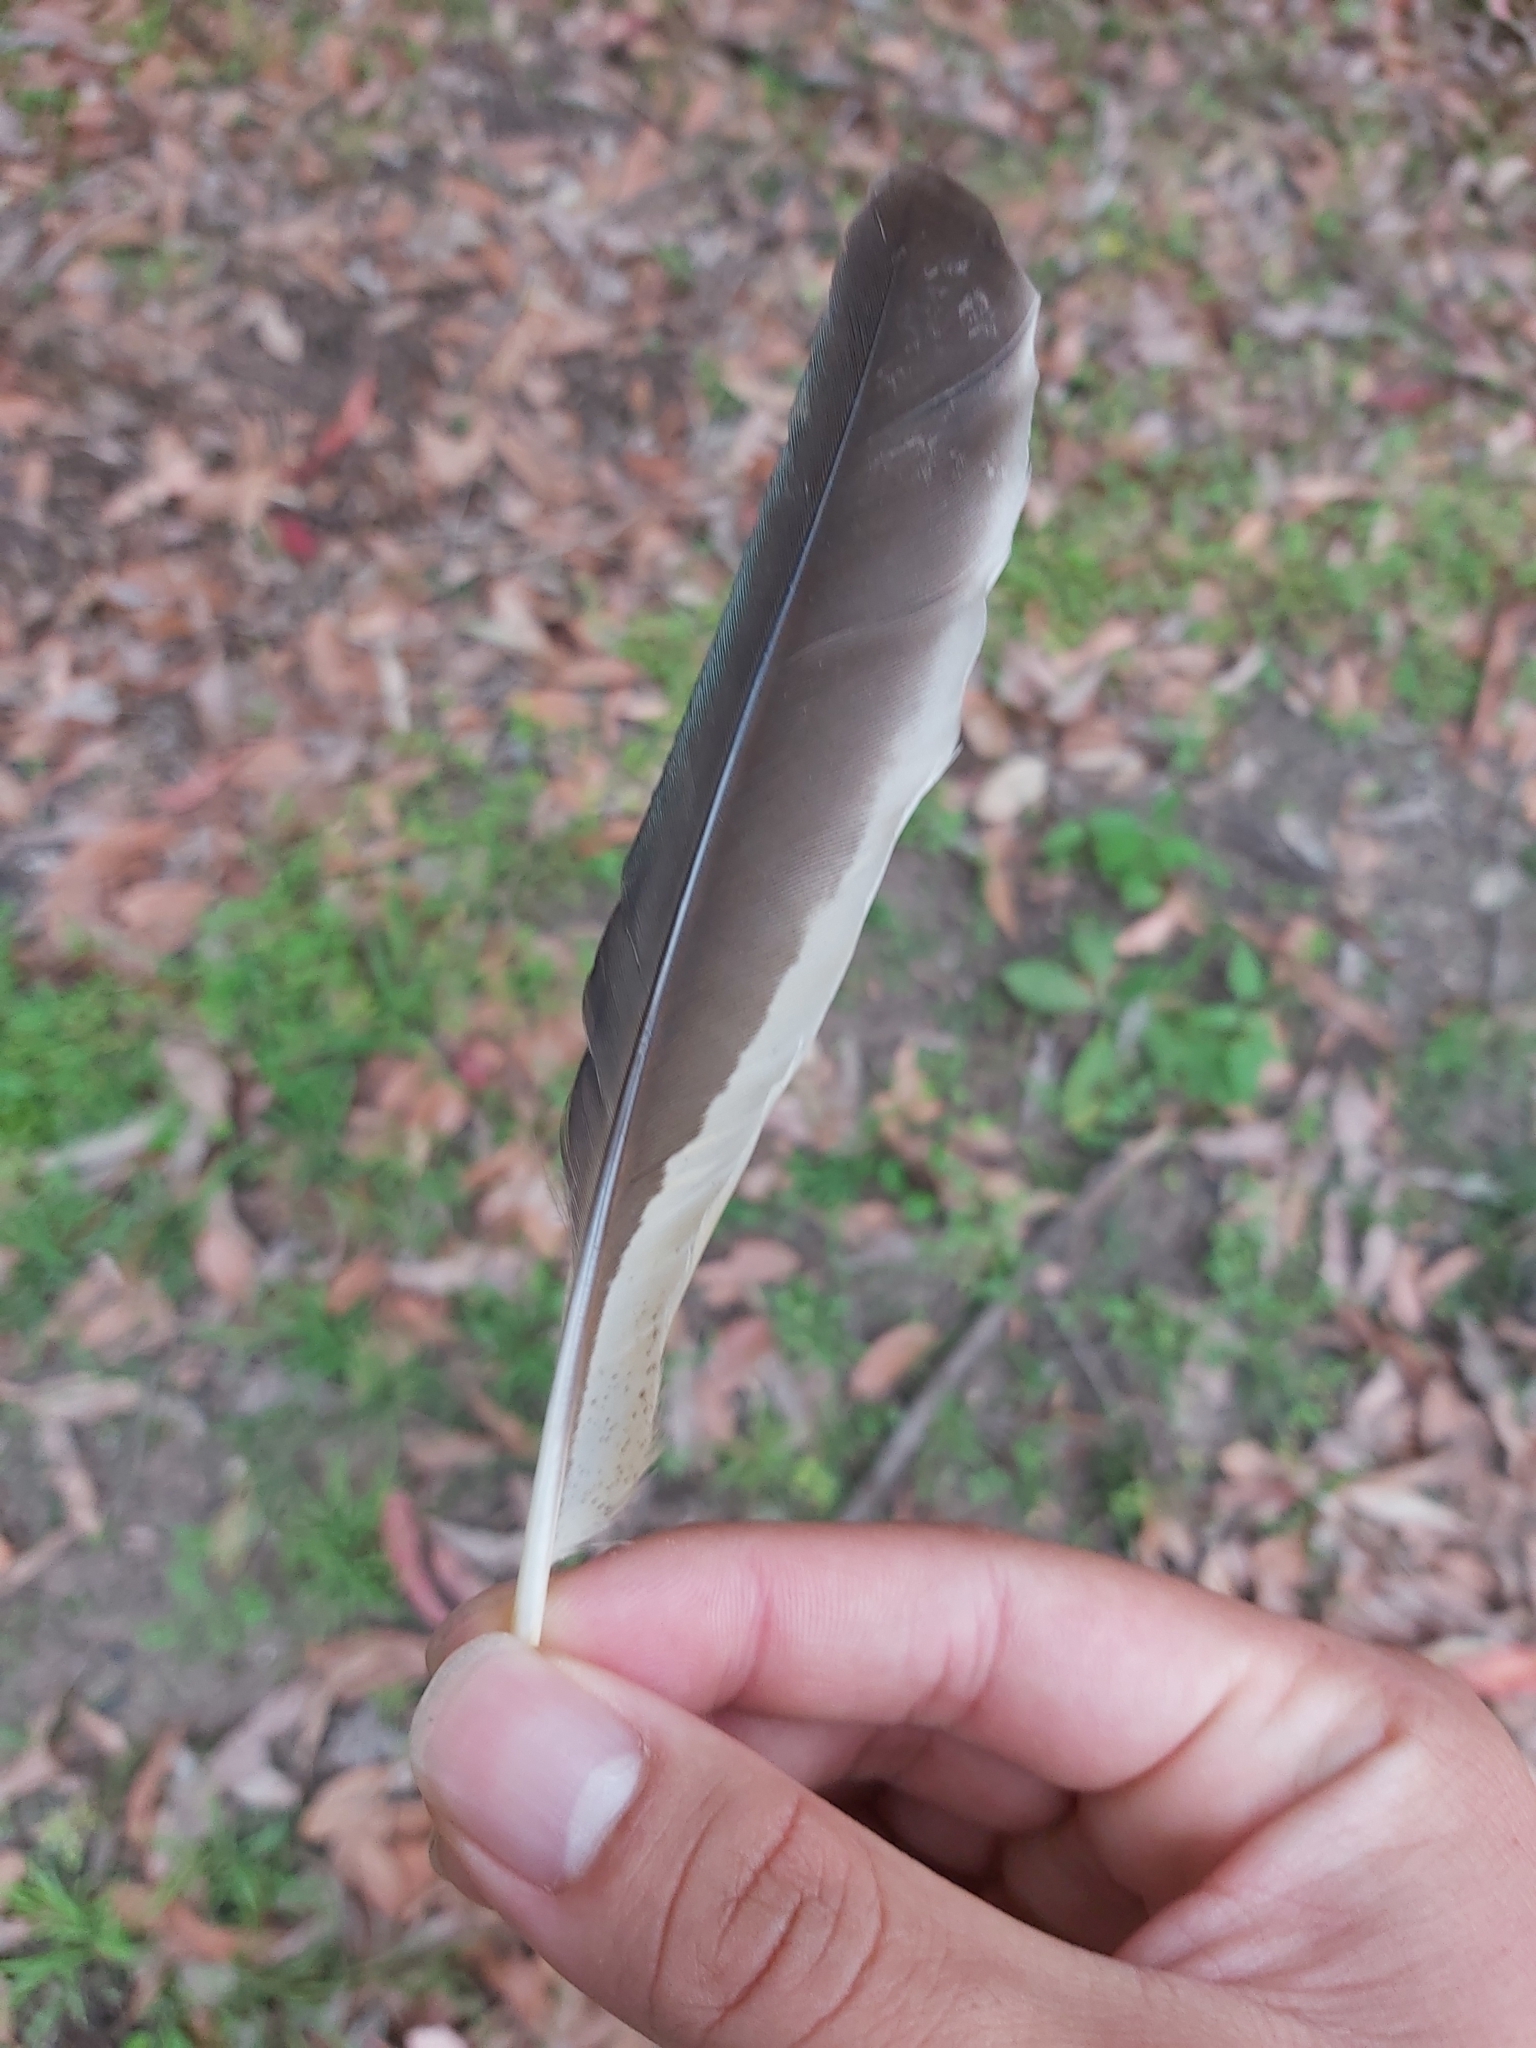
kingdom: Animalia
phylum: Chordata
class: Aves
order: Coraciiformes
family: Alcedinidae
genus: Dacelo
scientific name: Dacelo novaeguineae
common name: Laughing kookaburra
